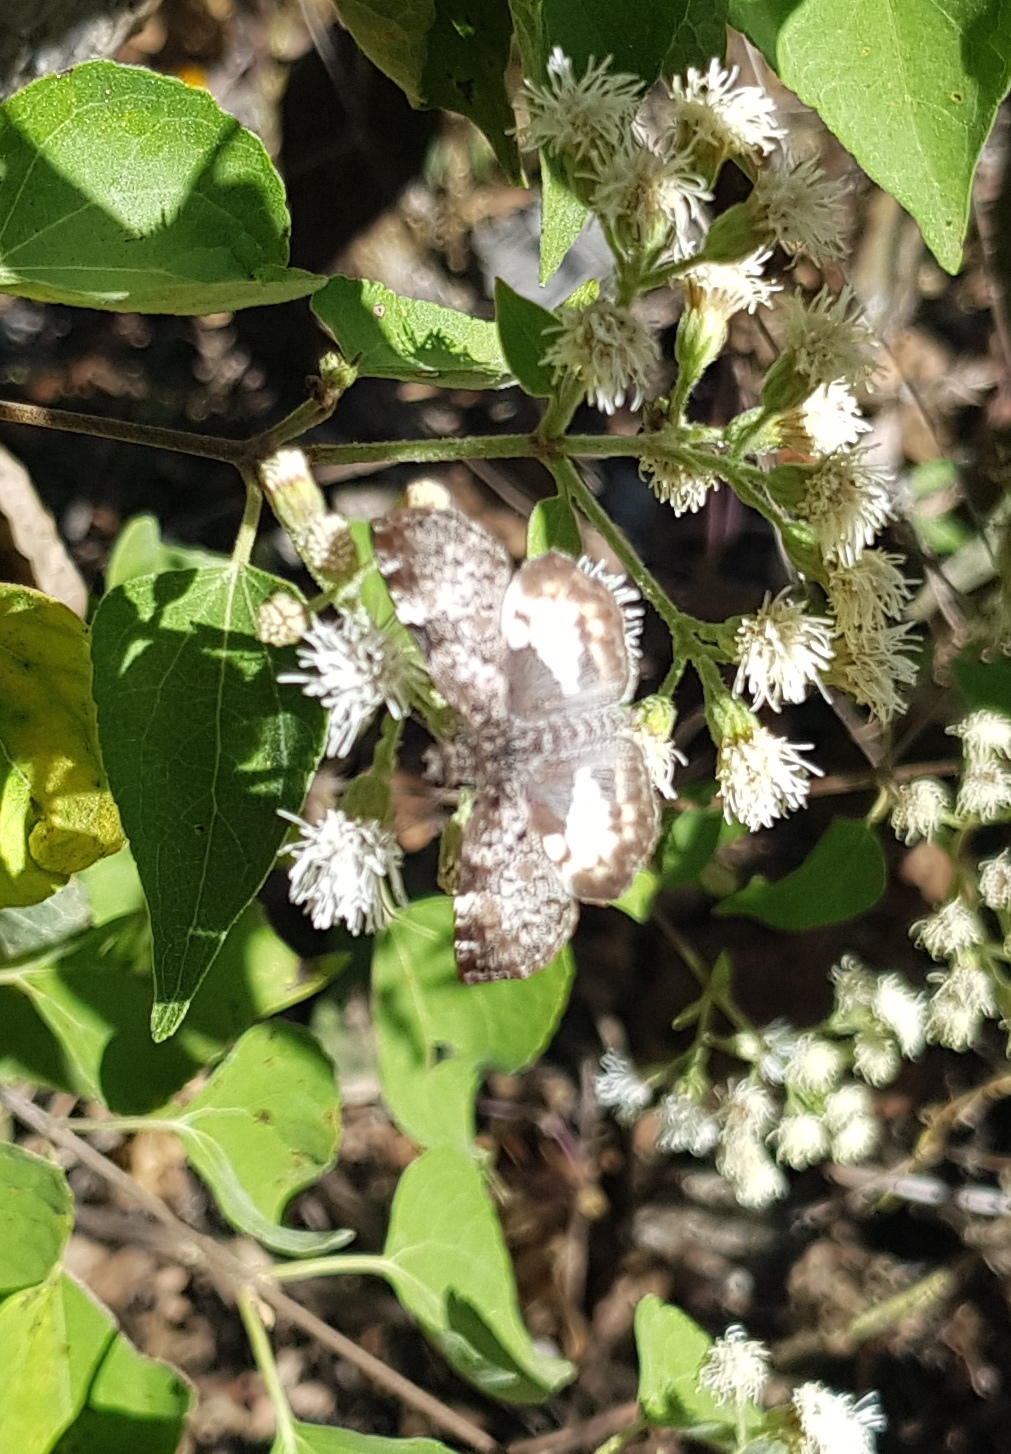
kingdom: Animalia
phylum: Arthropoda
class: Insecta
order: Lepidoptera
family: Hesperiidae
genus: Chiothion
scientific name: Chiothion georgina
